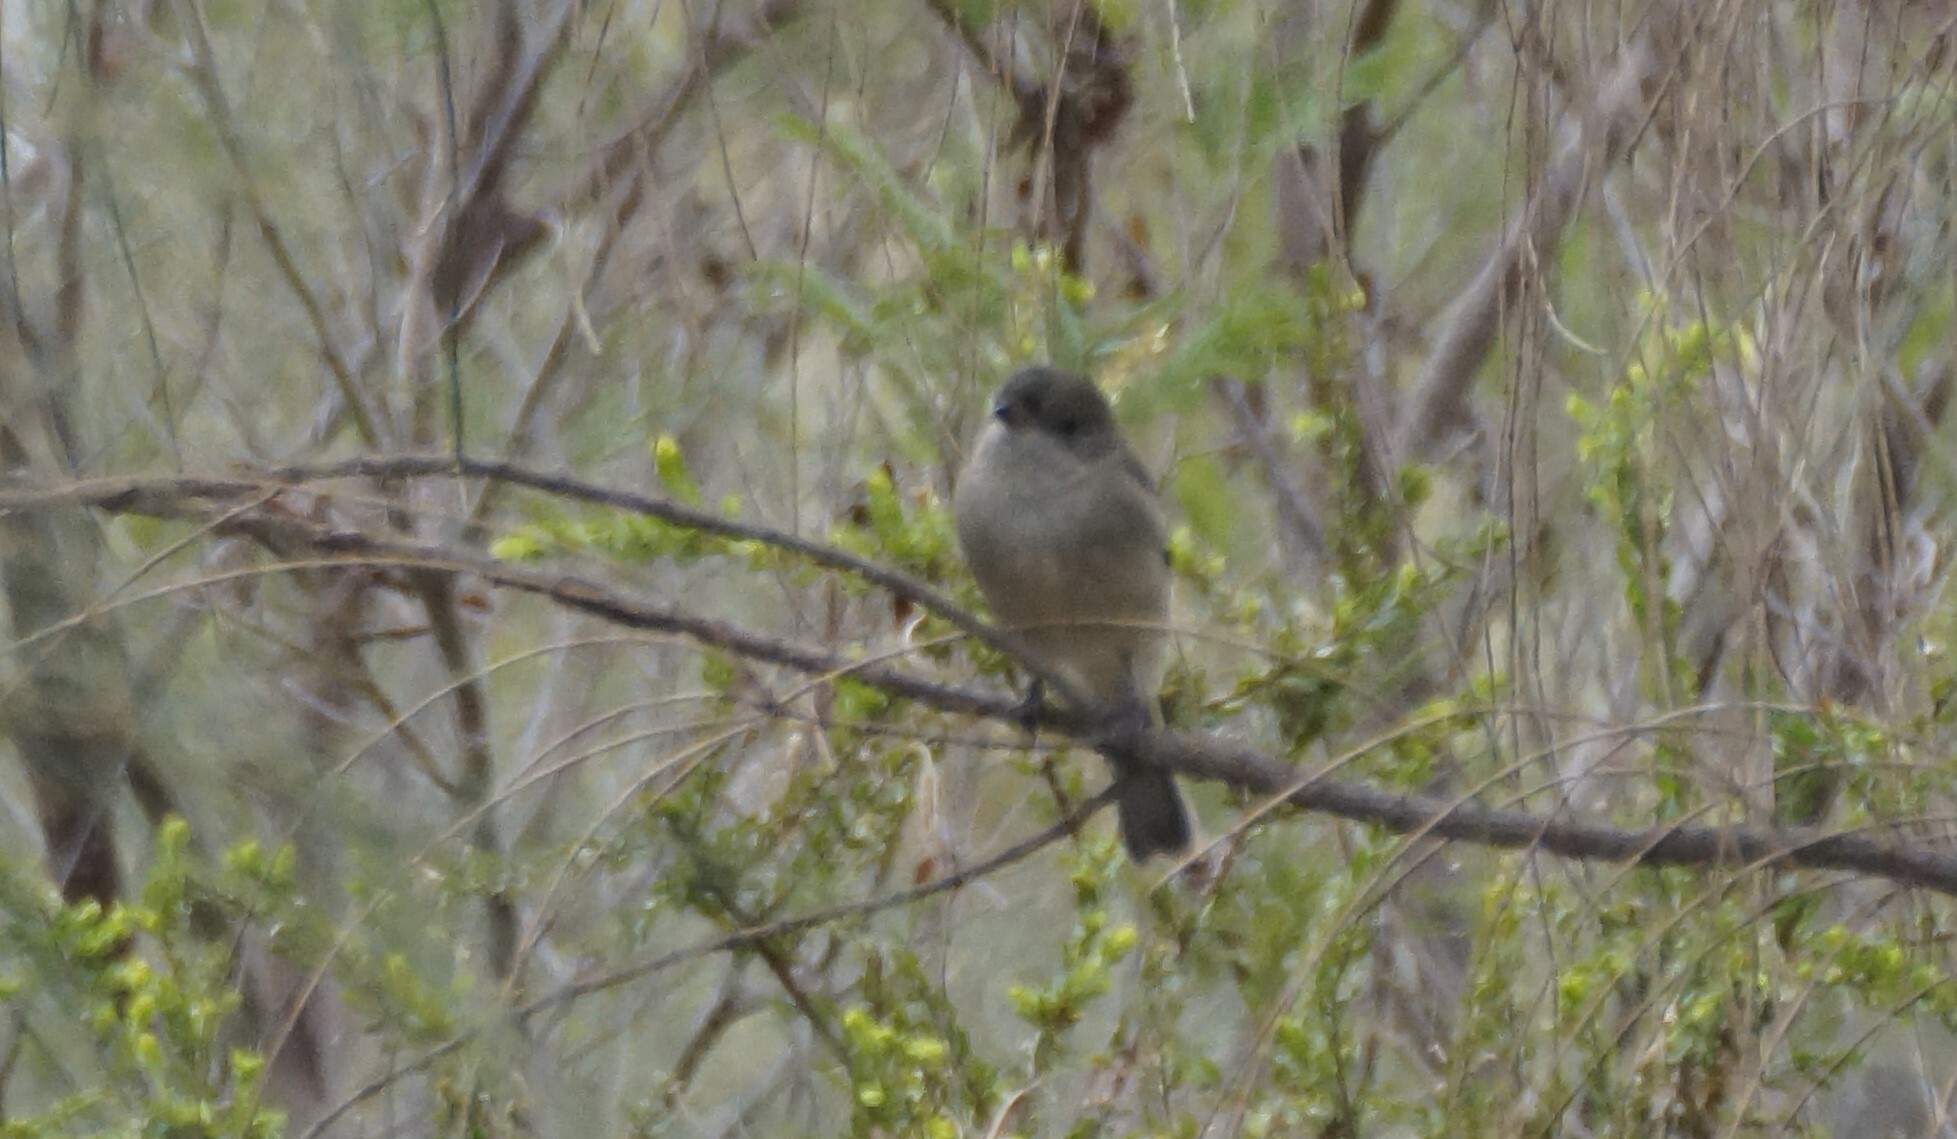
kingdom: Animalia
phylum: Chordata
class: Aves
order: Passeriformes
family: Pachycephalidae
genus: Pachycephala
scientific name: Pachycephala pectoralis
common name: Australian golden whistler
